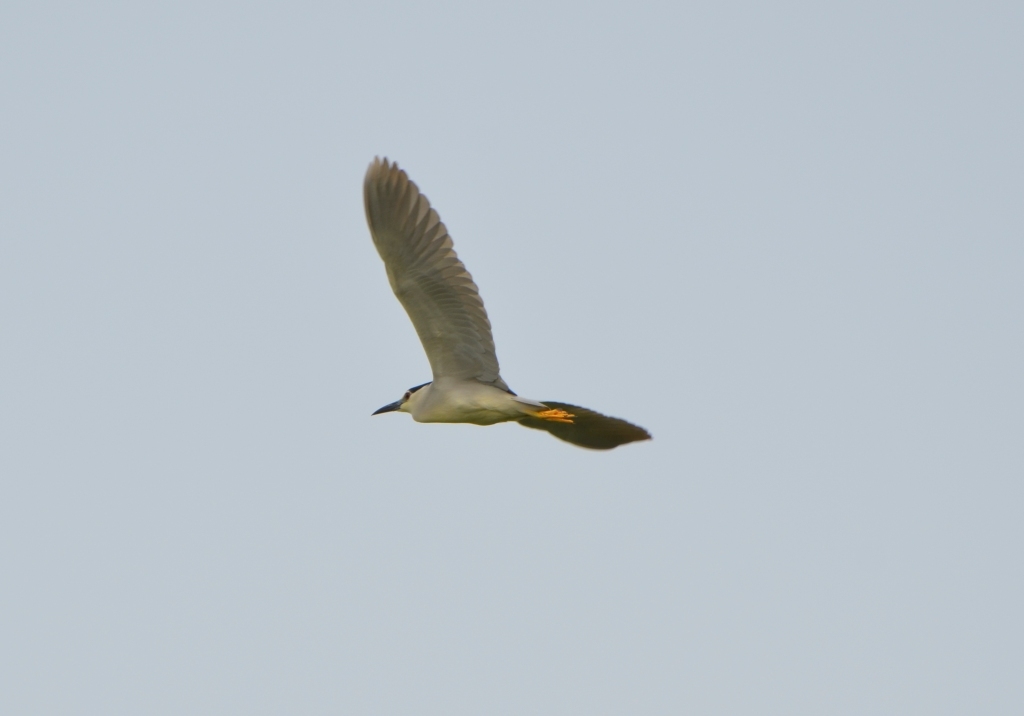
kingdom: Animalia
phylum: Chordata
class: Aves
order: Pelecaniformes
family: Ardeidae
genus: Nycticorax
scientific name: Nycticorax nycticorax
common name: Black-crowned night heron
